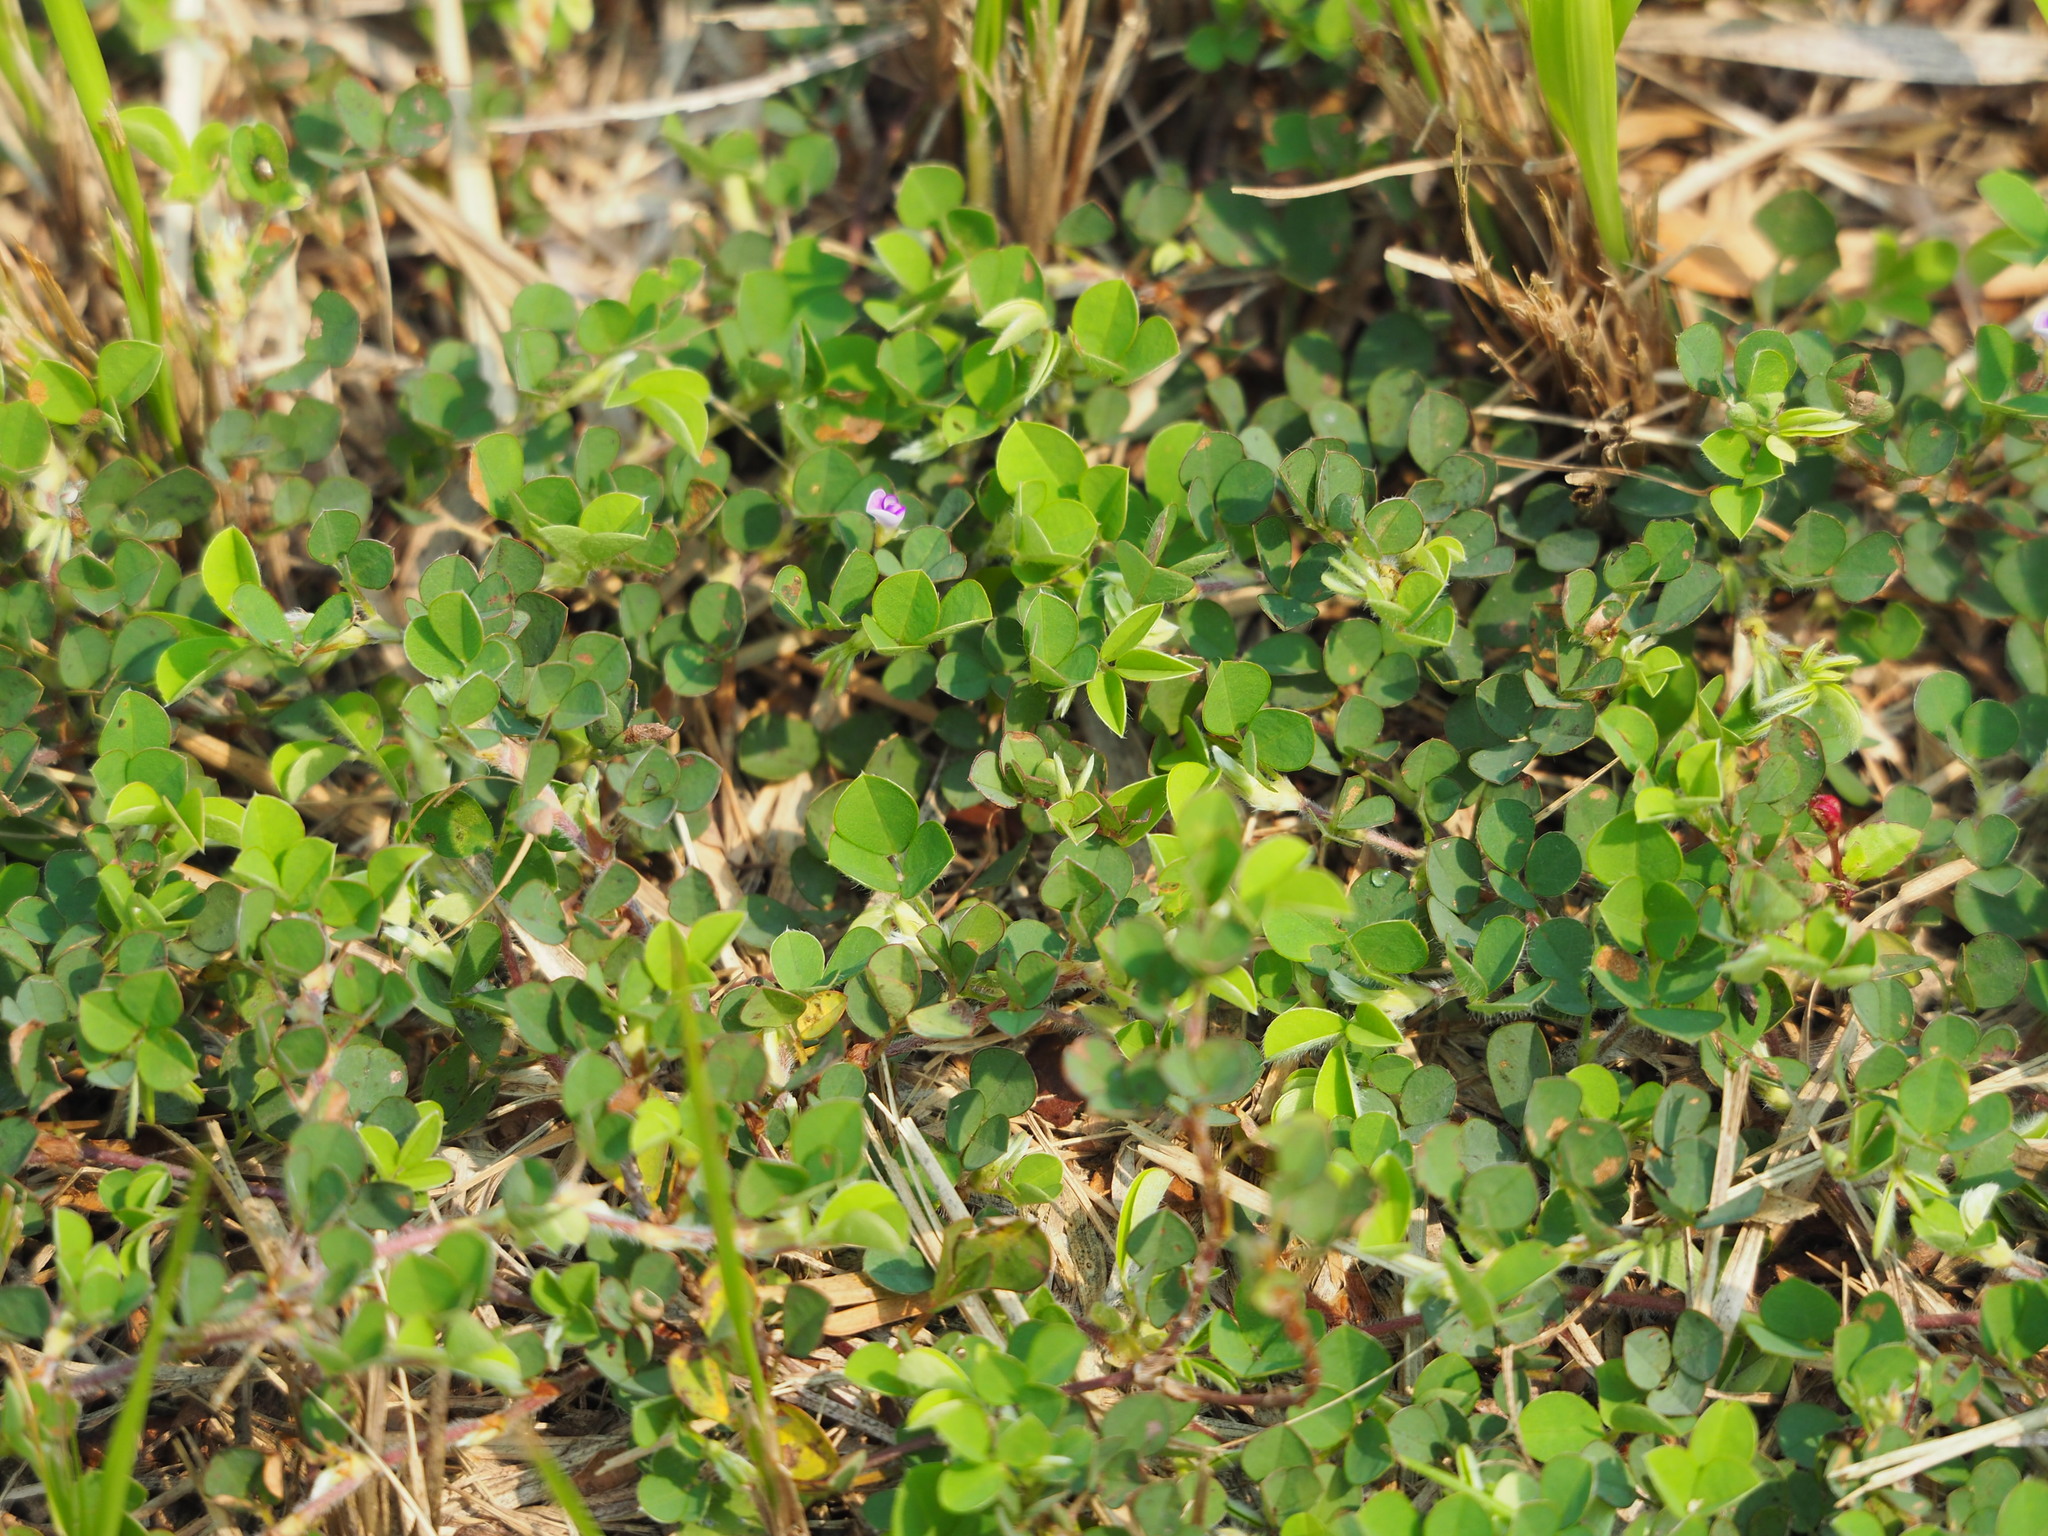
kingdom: Plantae
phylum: Tracheophyta
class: Magnoliopsida
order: Fabales
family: Fabaceae
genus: Grona
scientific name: Grona triflora
